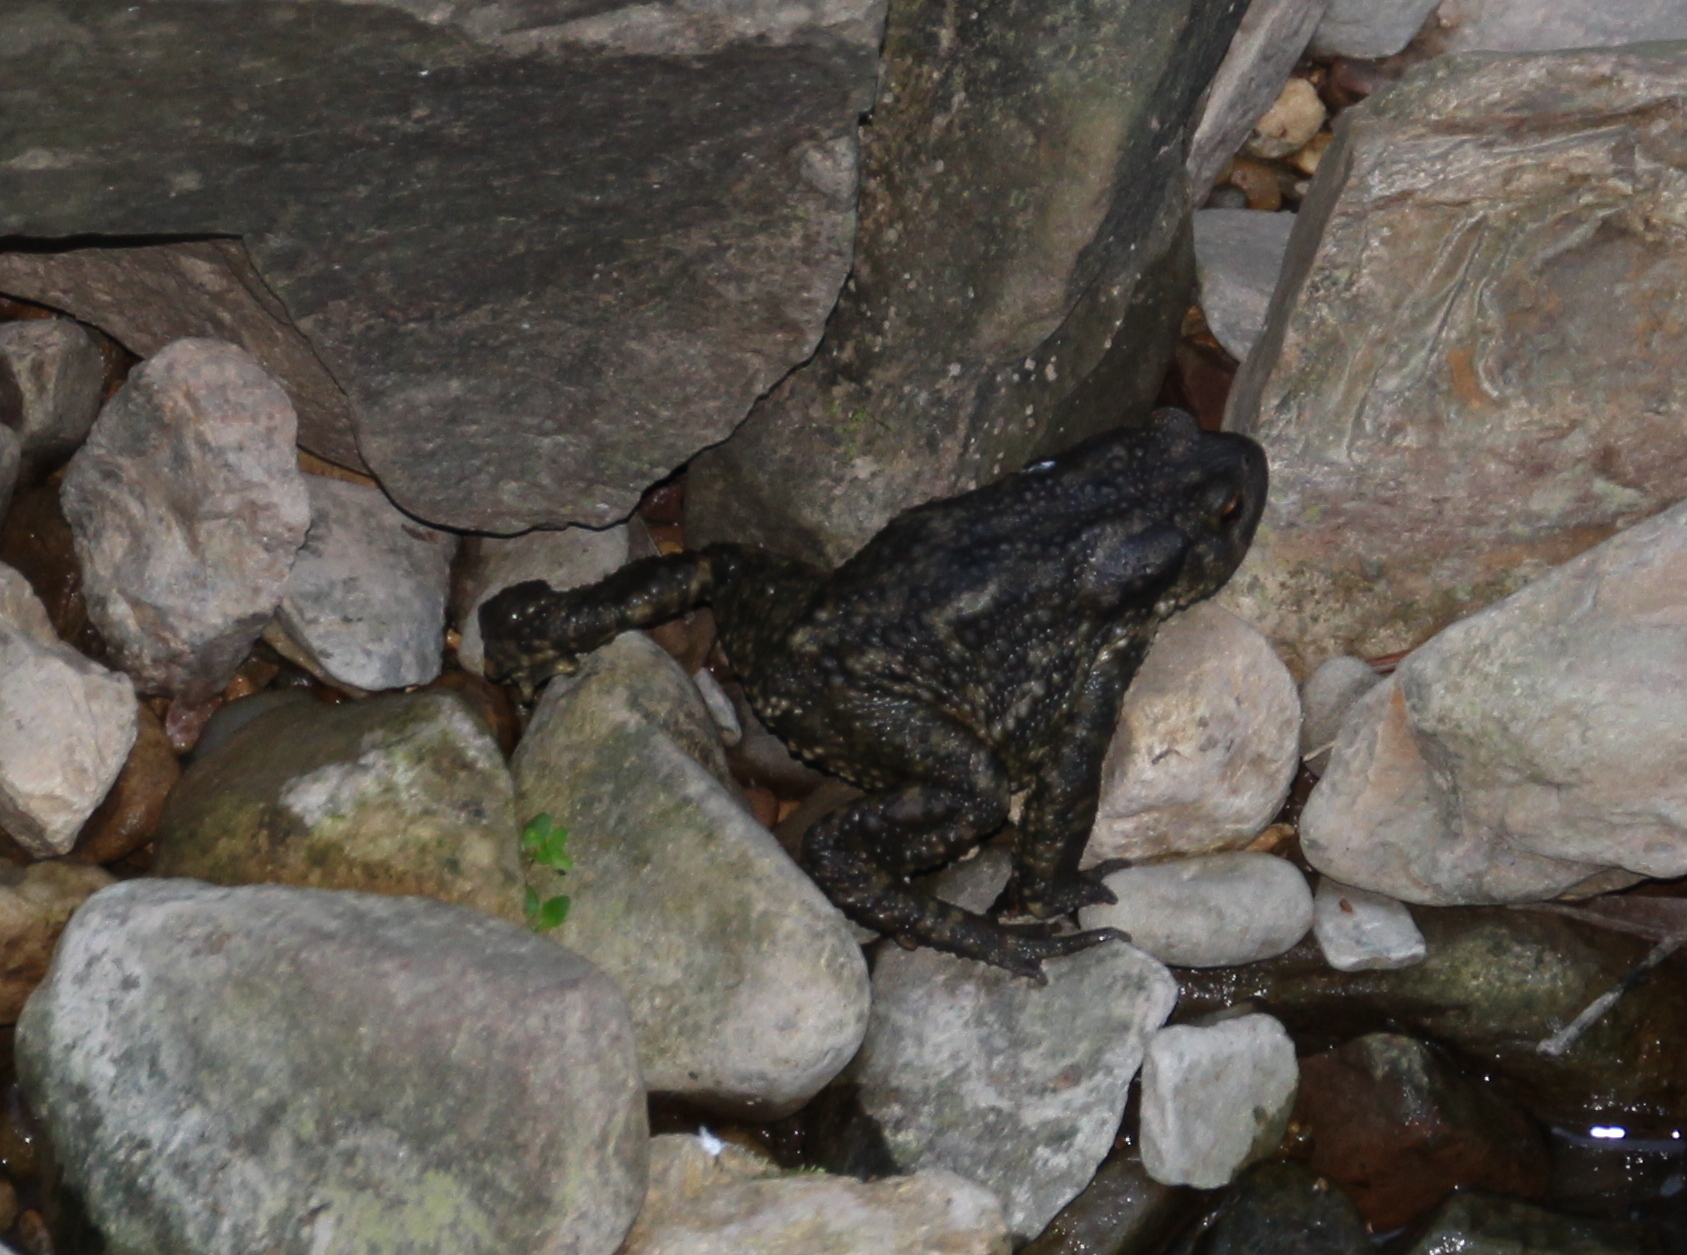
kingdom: Animalia
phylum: Chordata
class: Amphibia
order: Anura
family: Bufonidae
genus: Bufo
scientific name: Bufo spinosus
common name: Western common toad
